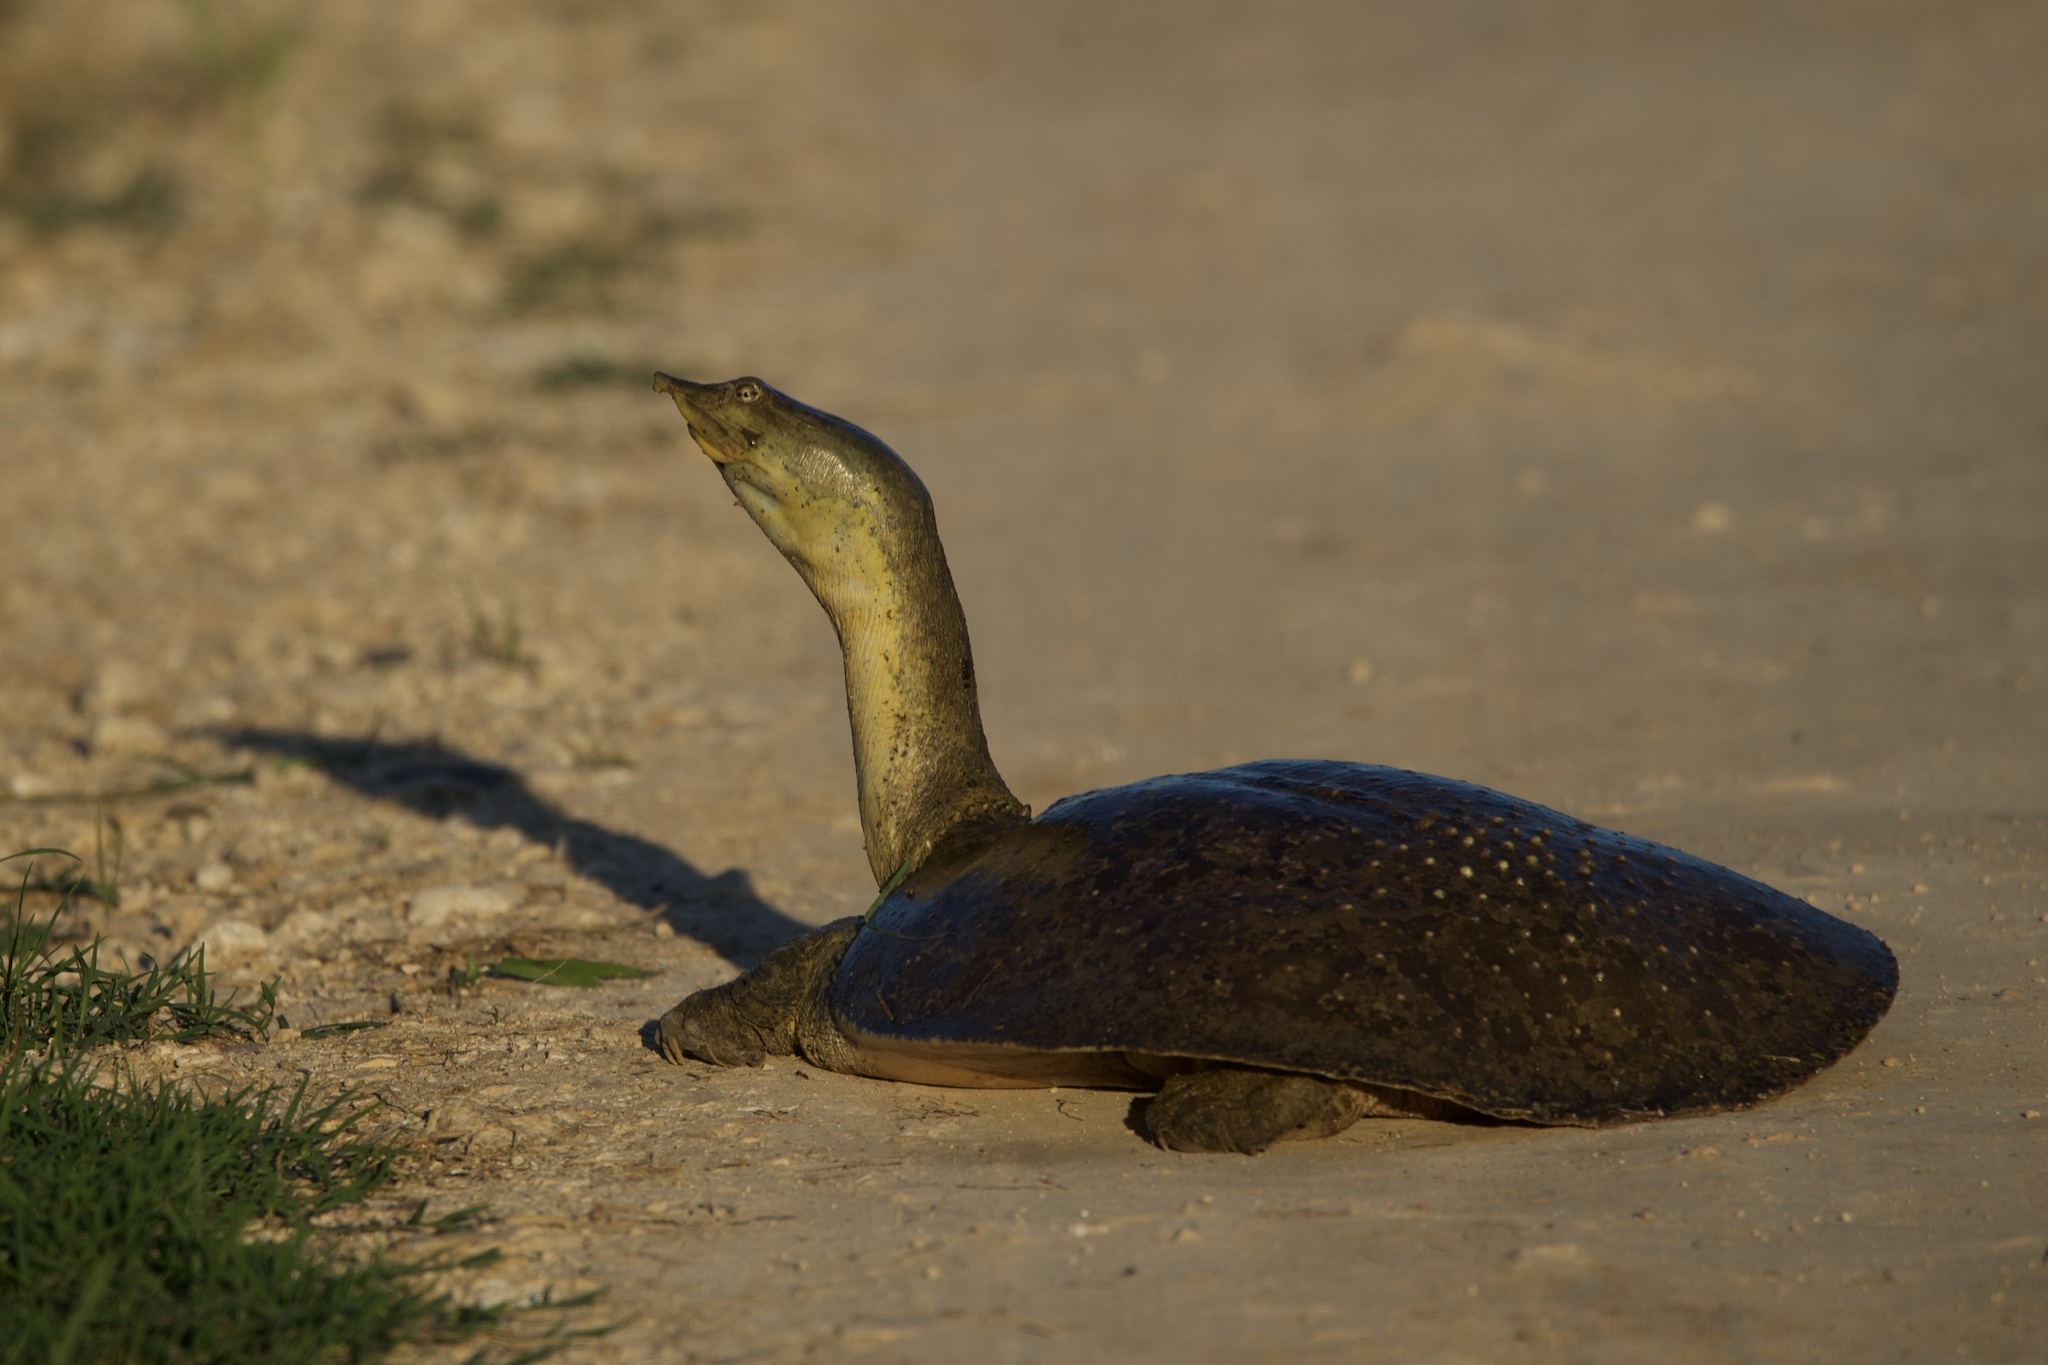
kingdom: Animalia
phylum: Chordata
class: Testudines
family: Trionychidae
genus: Apalone
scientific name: Apalone spinifera
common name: Spiny softshell turtle
